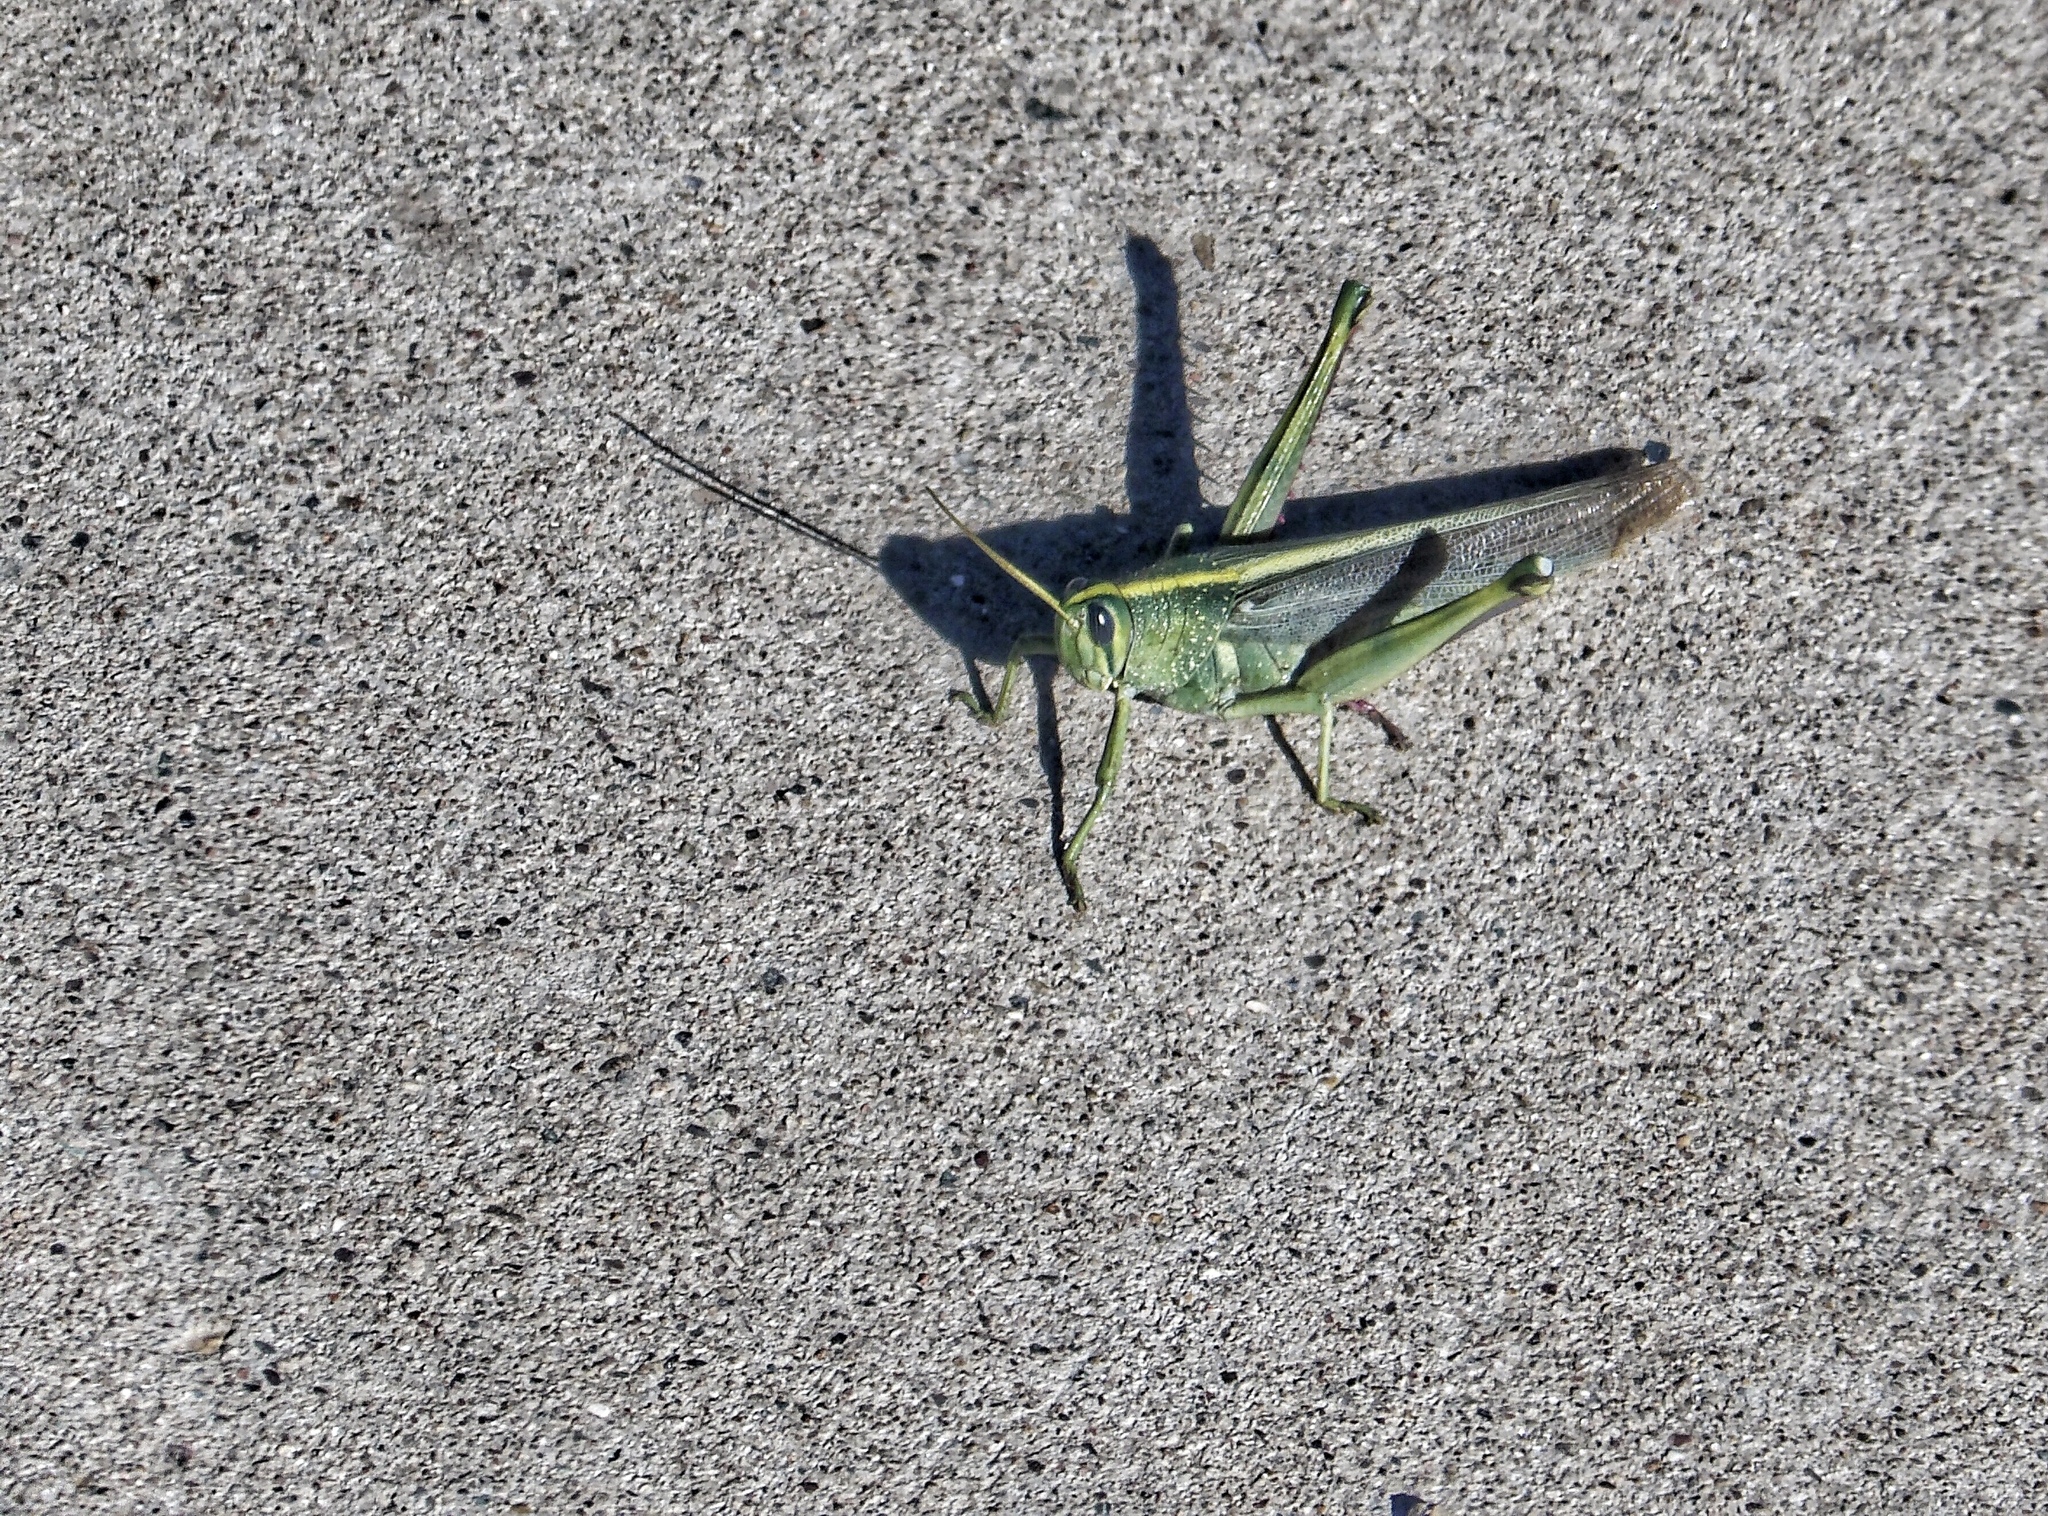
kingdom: Animalia
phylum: Arthropoda
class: Insecta
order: Orthoptera
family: Acrididae
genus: Schistocerca
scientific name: Schistocerca lineata
